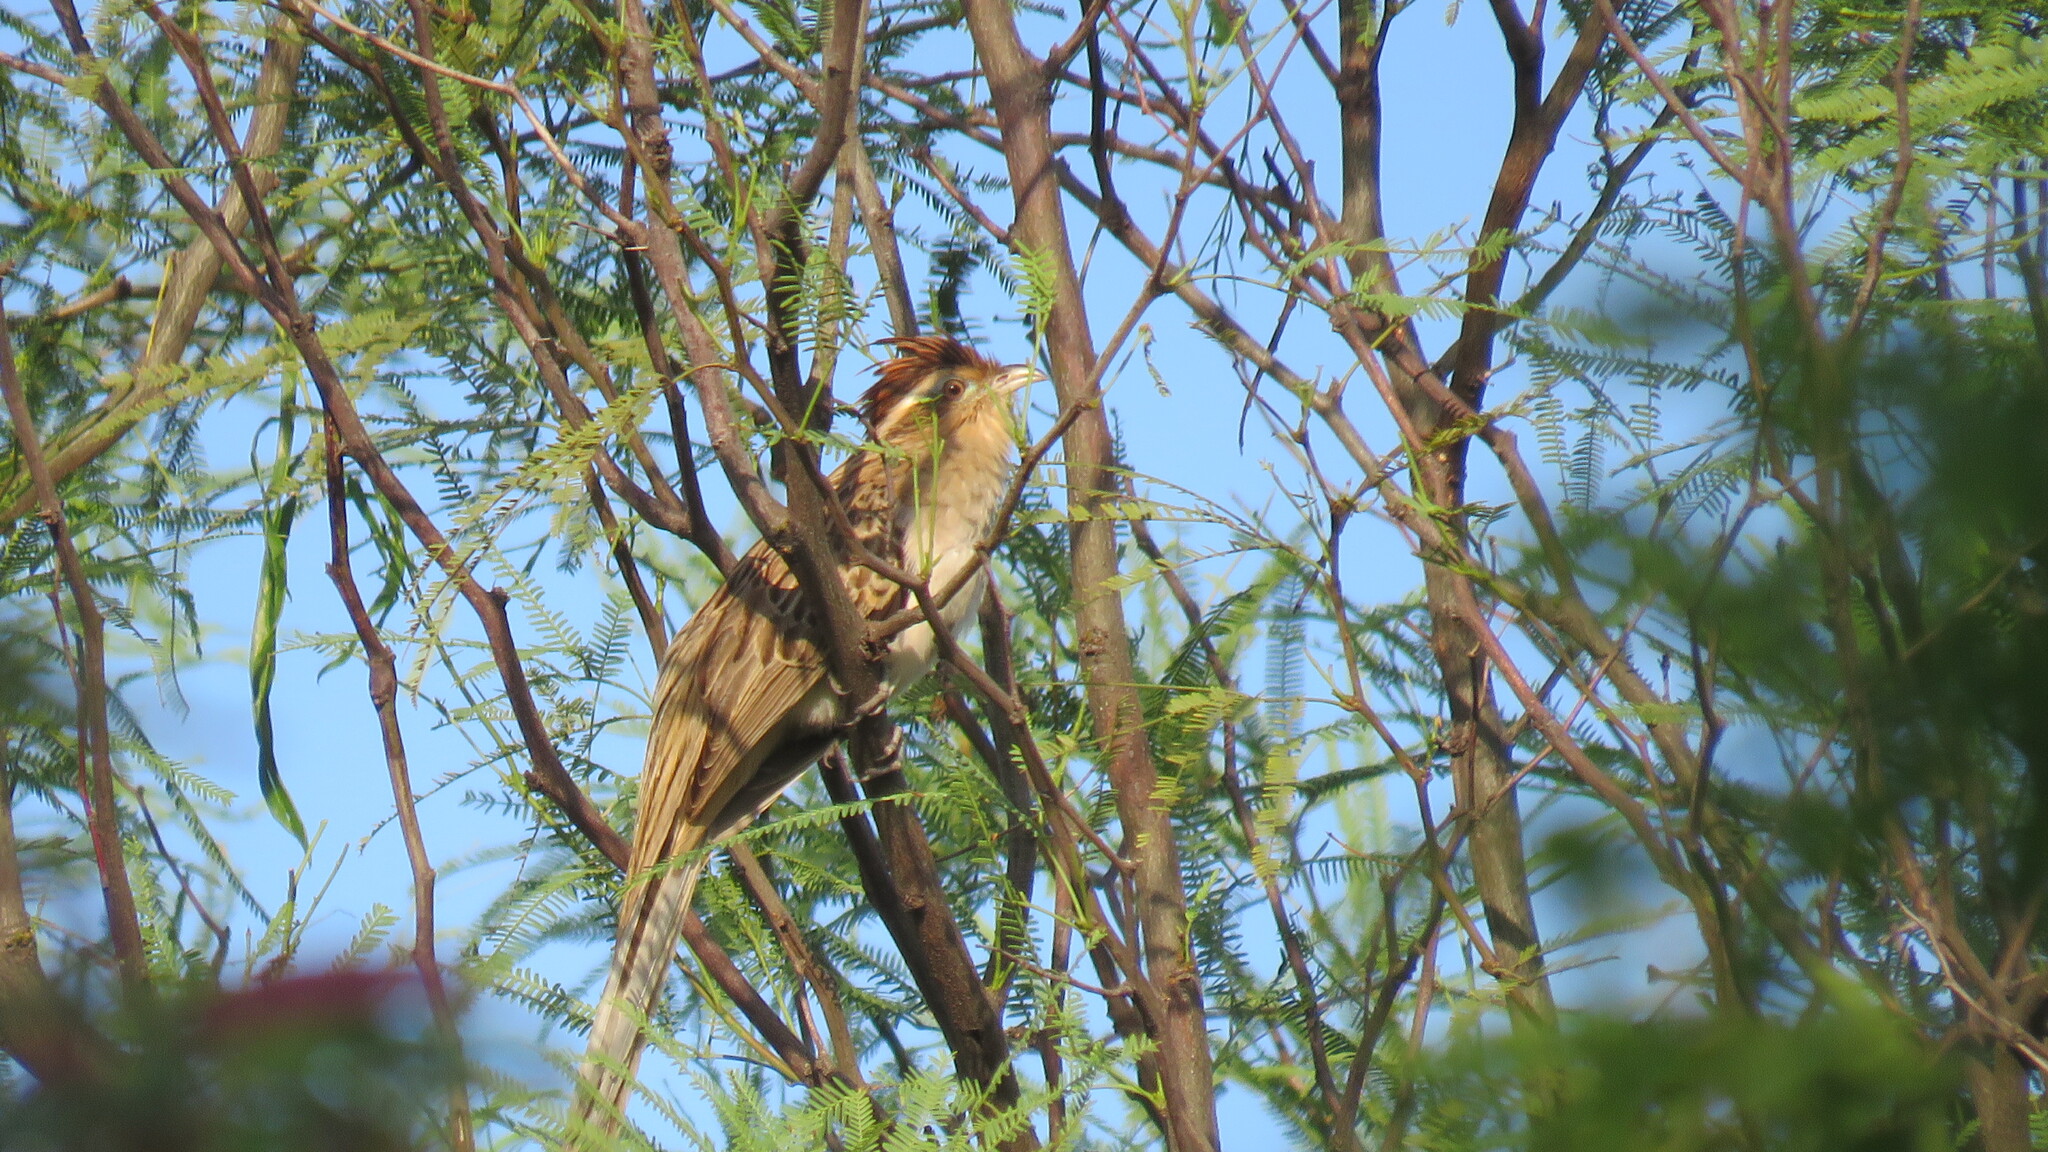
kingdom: Animalia
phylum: Chordata
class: Aves
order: Cuculiformes
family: Cuculidae
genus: Tapera
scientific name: Tapera naevia
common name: Striped cuckoo
